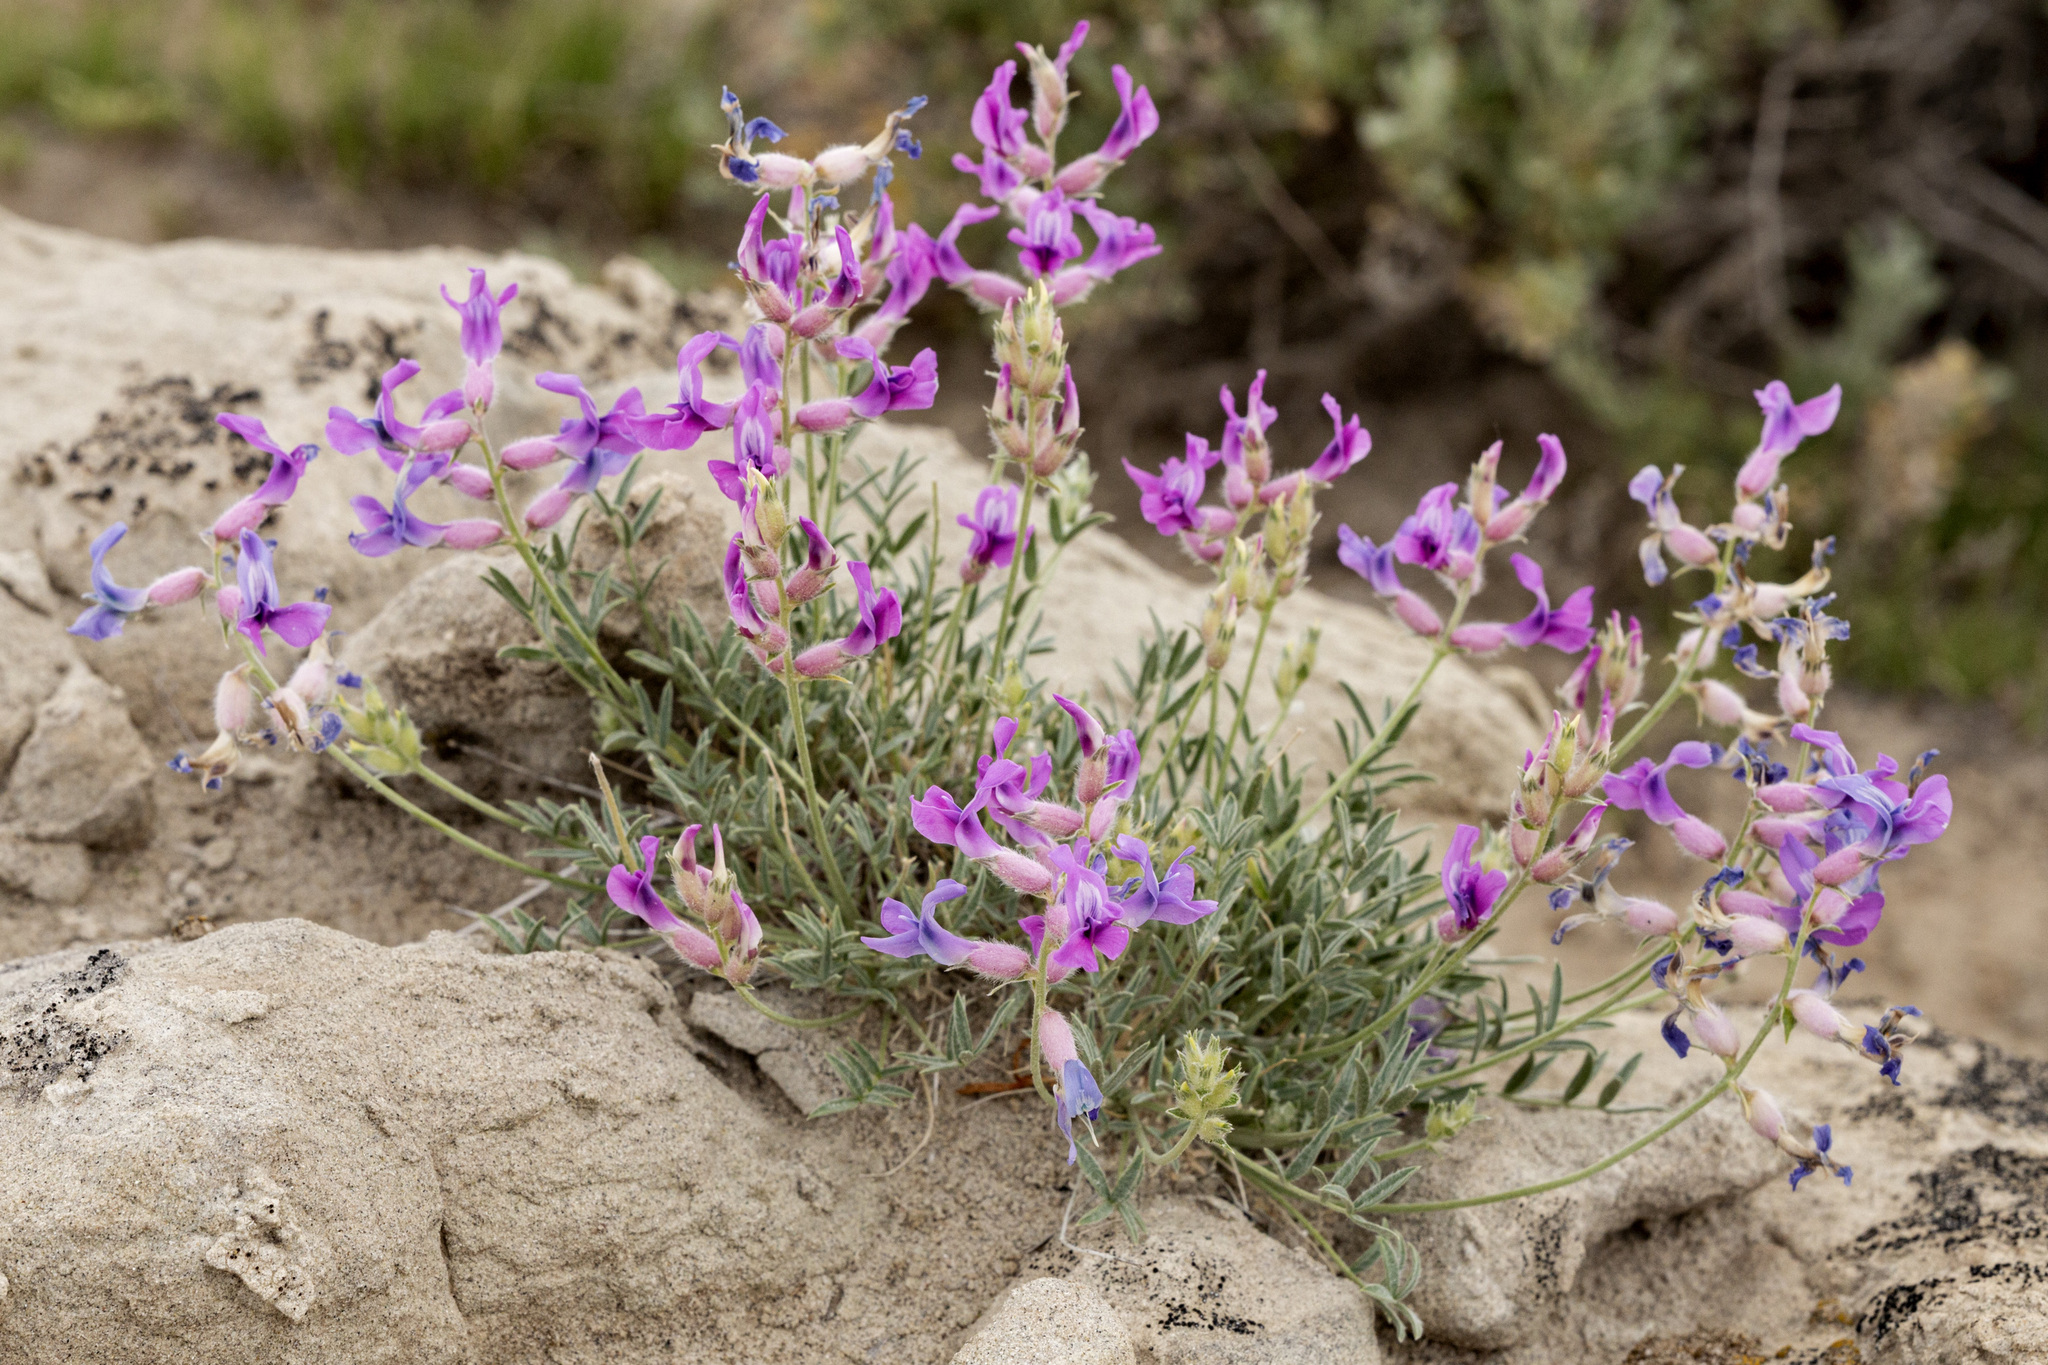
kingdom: Plantae
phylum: Tracheophyta
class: Magnoliopsida
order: Fabales
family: Fabaceae
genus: Oxytropis
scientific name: Oxytropis besseyi
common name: Bessey's locoweed
